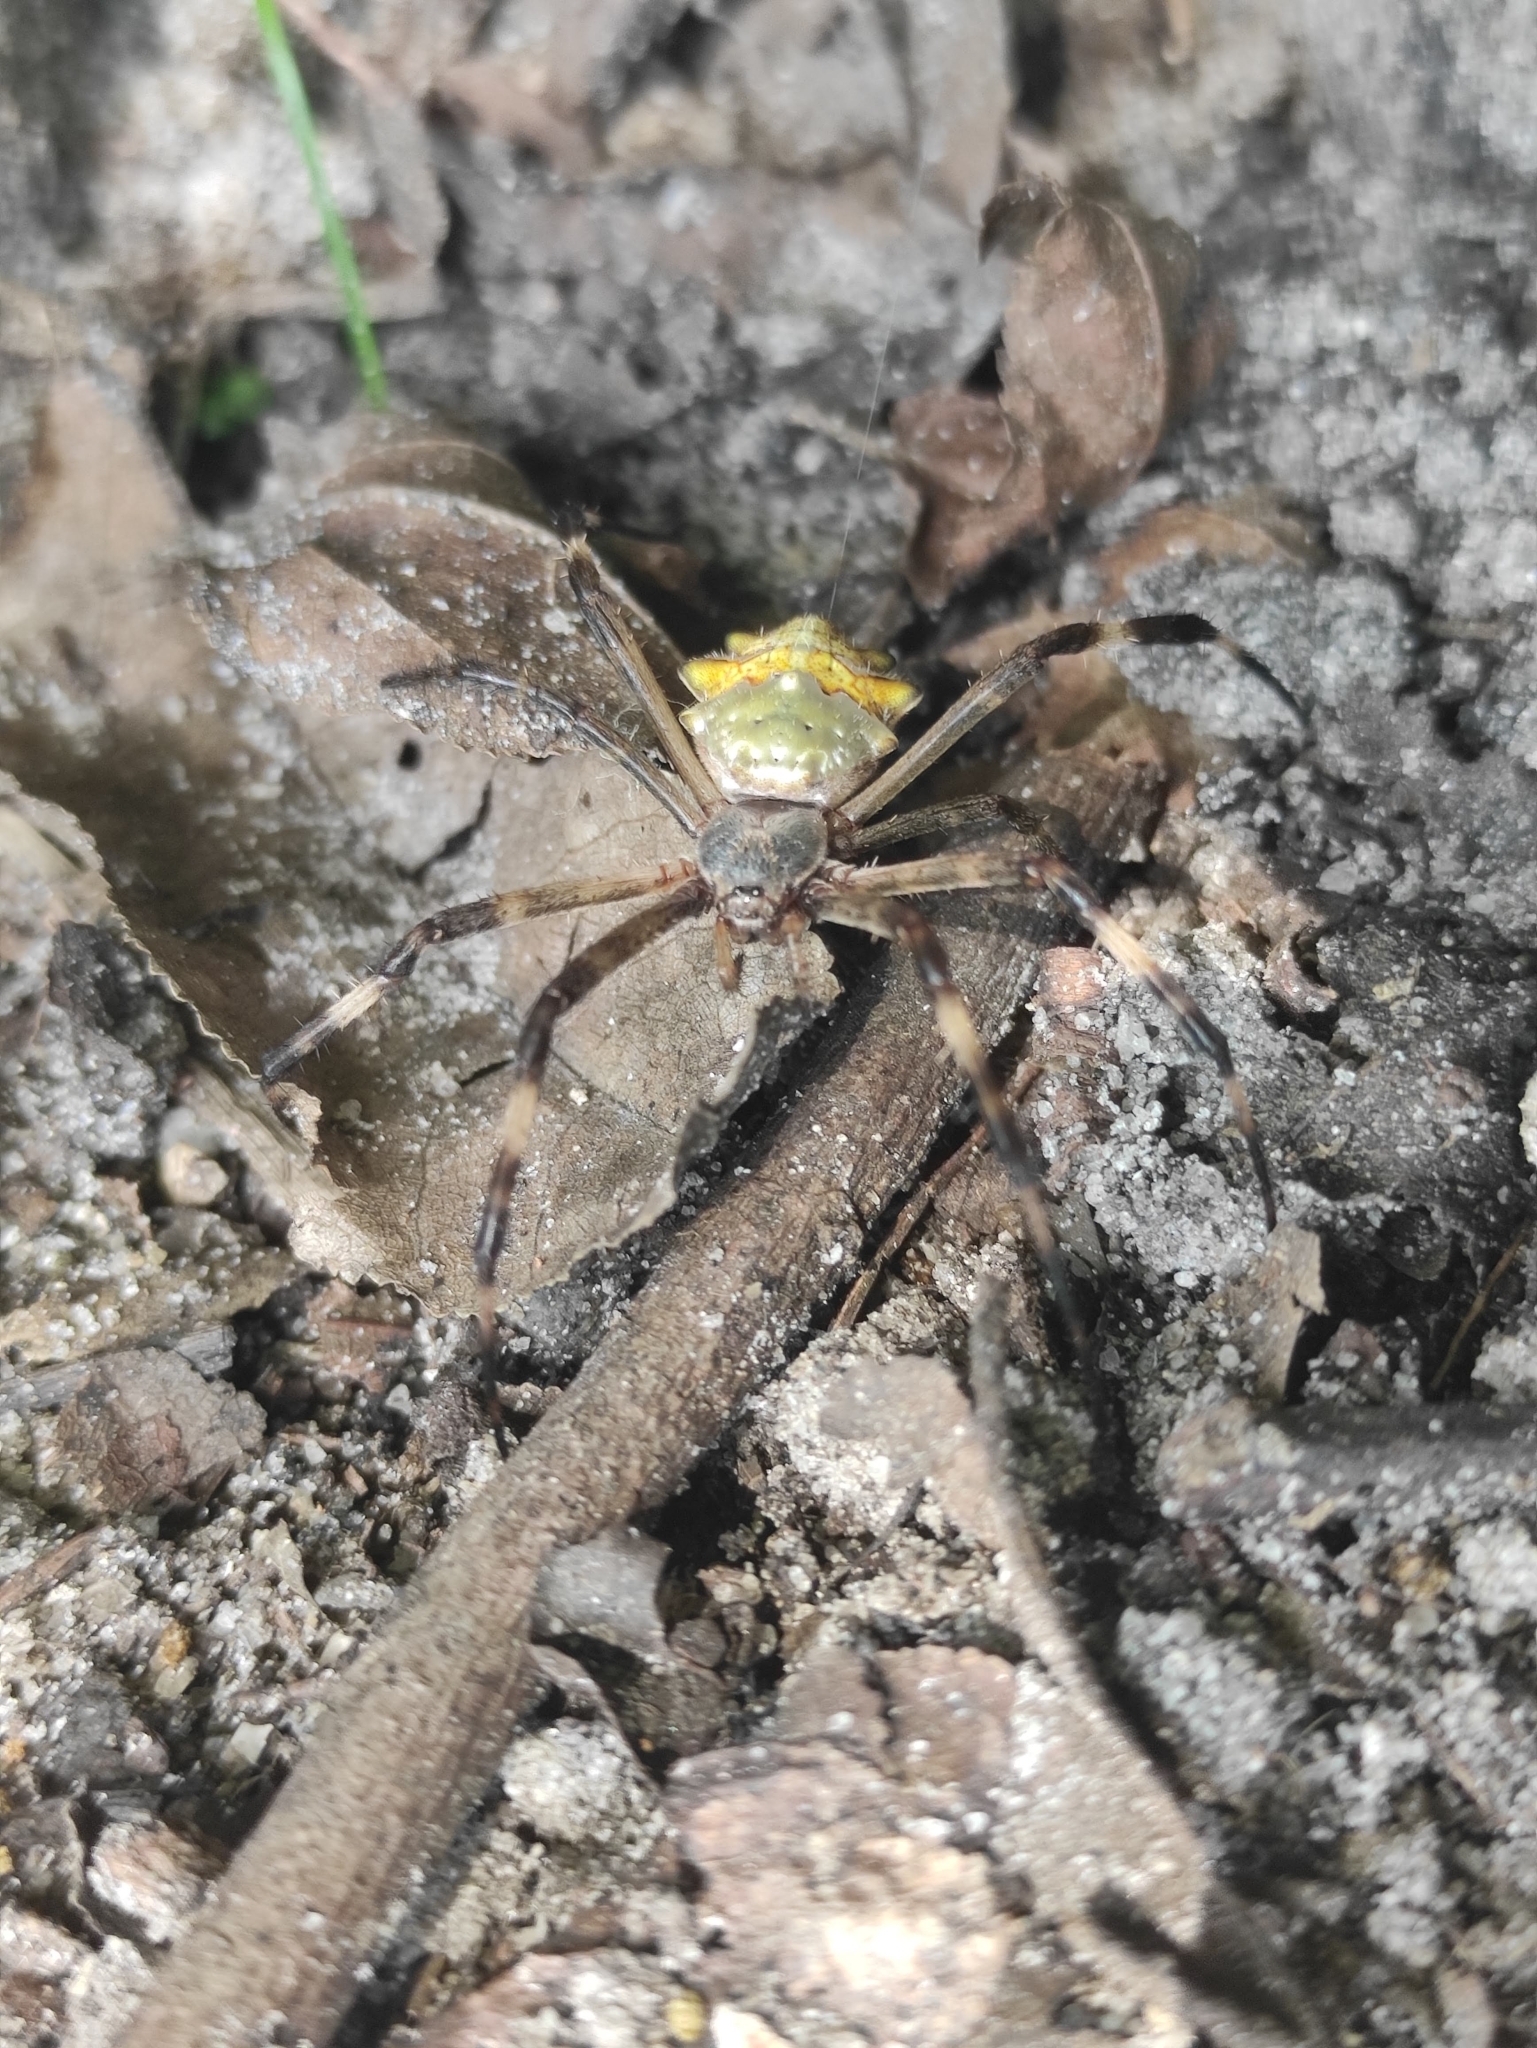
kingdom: Animalia
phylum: Arthropoda
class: Arachnida
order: Araneae
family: Araneidae
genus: Argiope
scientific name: Argiope argentata
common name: Orb weavers
